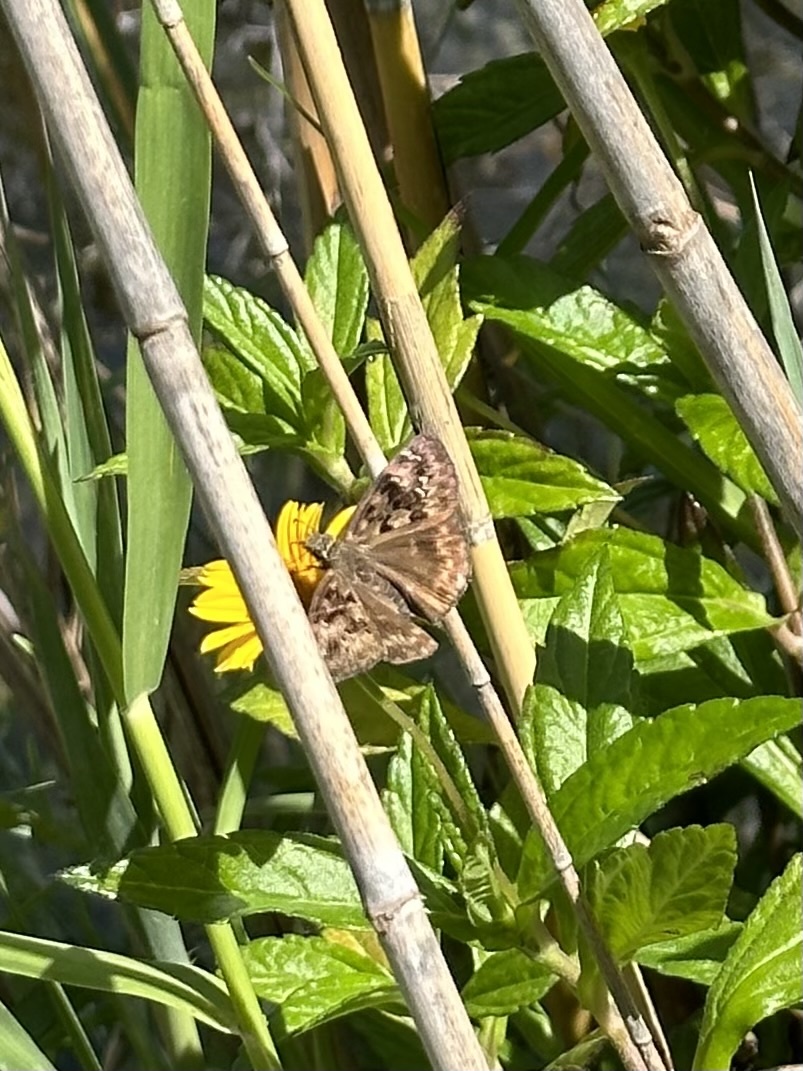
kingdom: Animalia
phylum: Arthropoda
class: Insecta
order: Lepidoptera
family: Hesperiidae
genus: Erynnis
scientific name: Erynnis horatius
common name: Horace's duskywing
